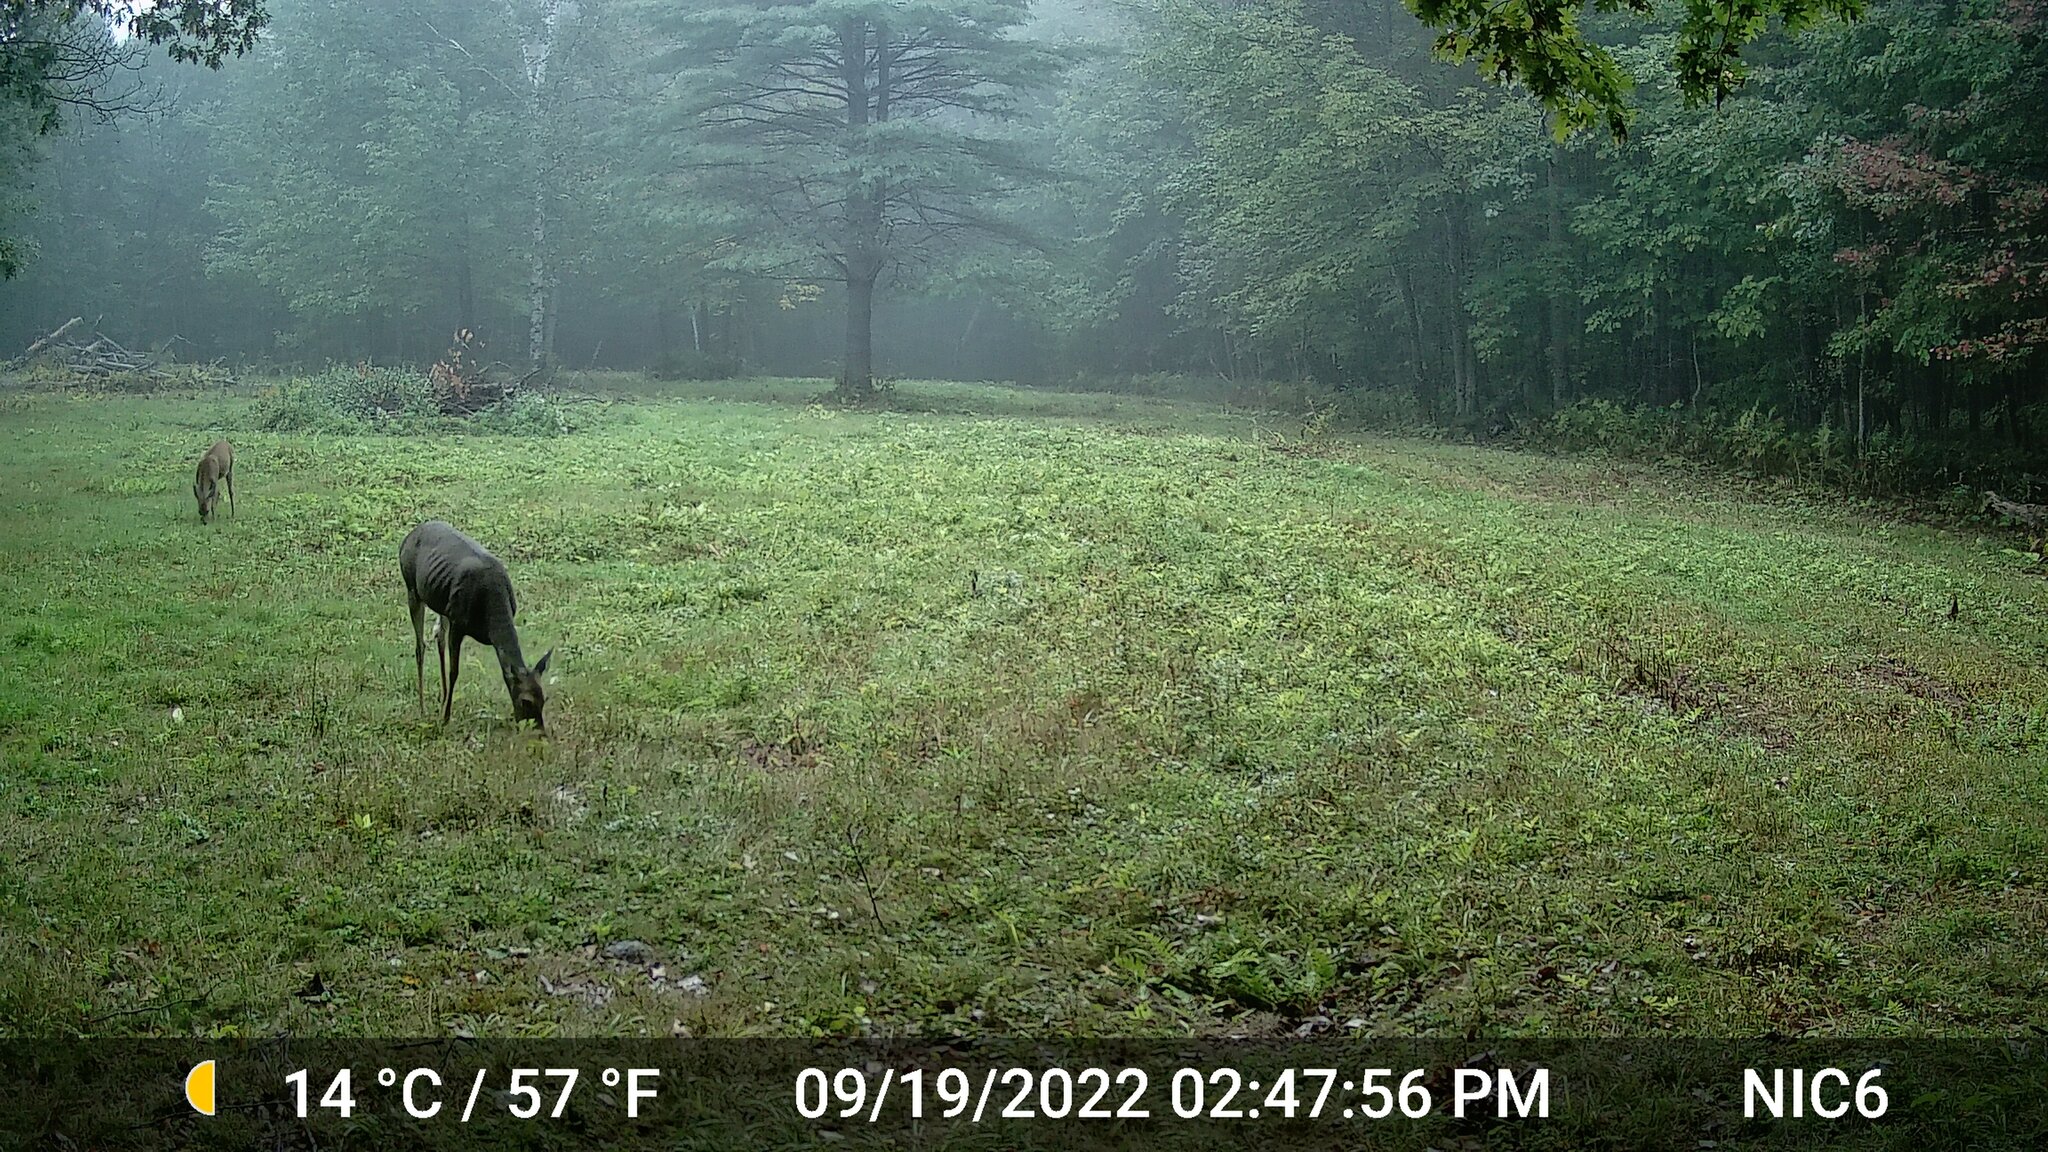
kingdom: Animalia
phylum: Chordata
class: Mammalia
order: Artiodactyla
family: Cervidae
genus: Odocoileus
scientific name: Odocoileus virginianus
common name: White-tailed deer
